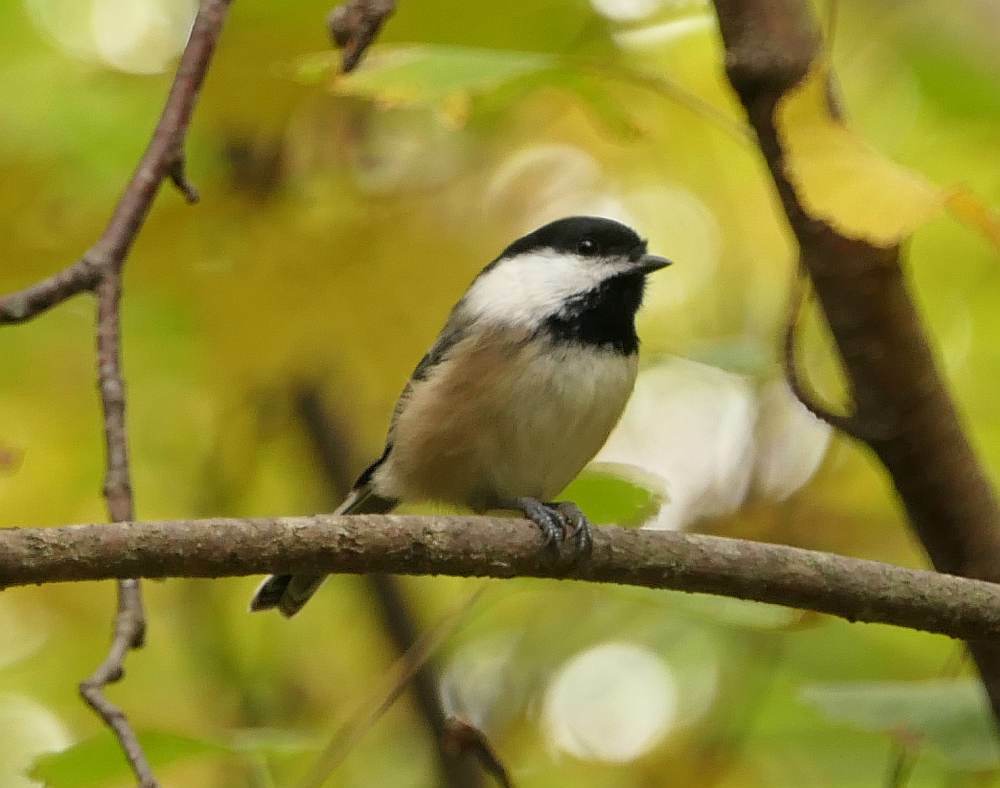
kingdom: Animalia
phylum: Chordata
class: Aves
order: Passeriformes
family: Paridae
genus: Poecile
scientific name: Poecile atricapillus
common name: Black-capped chickadee
